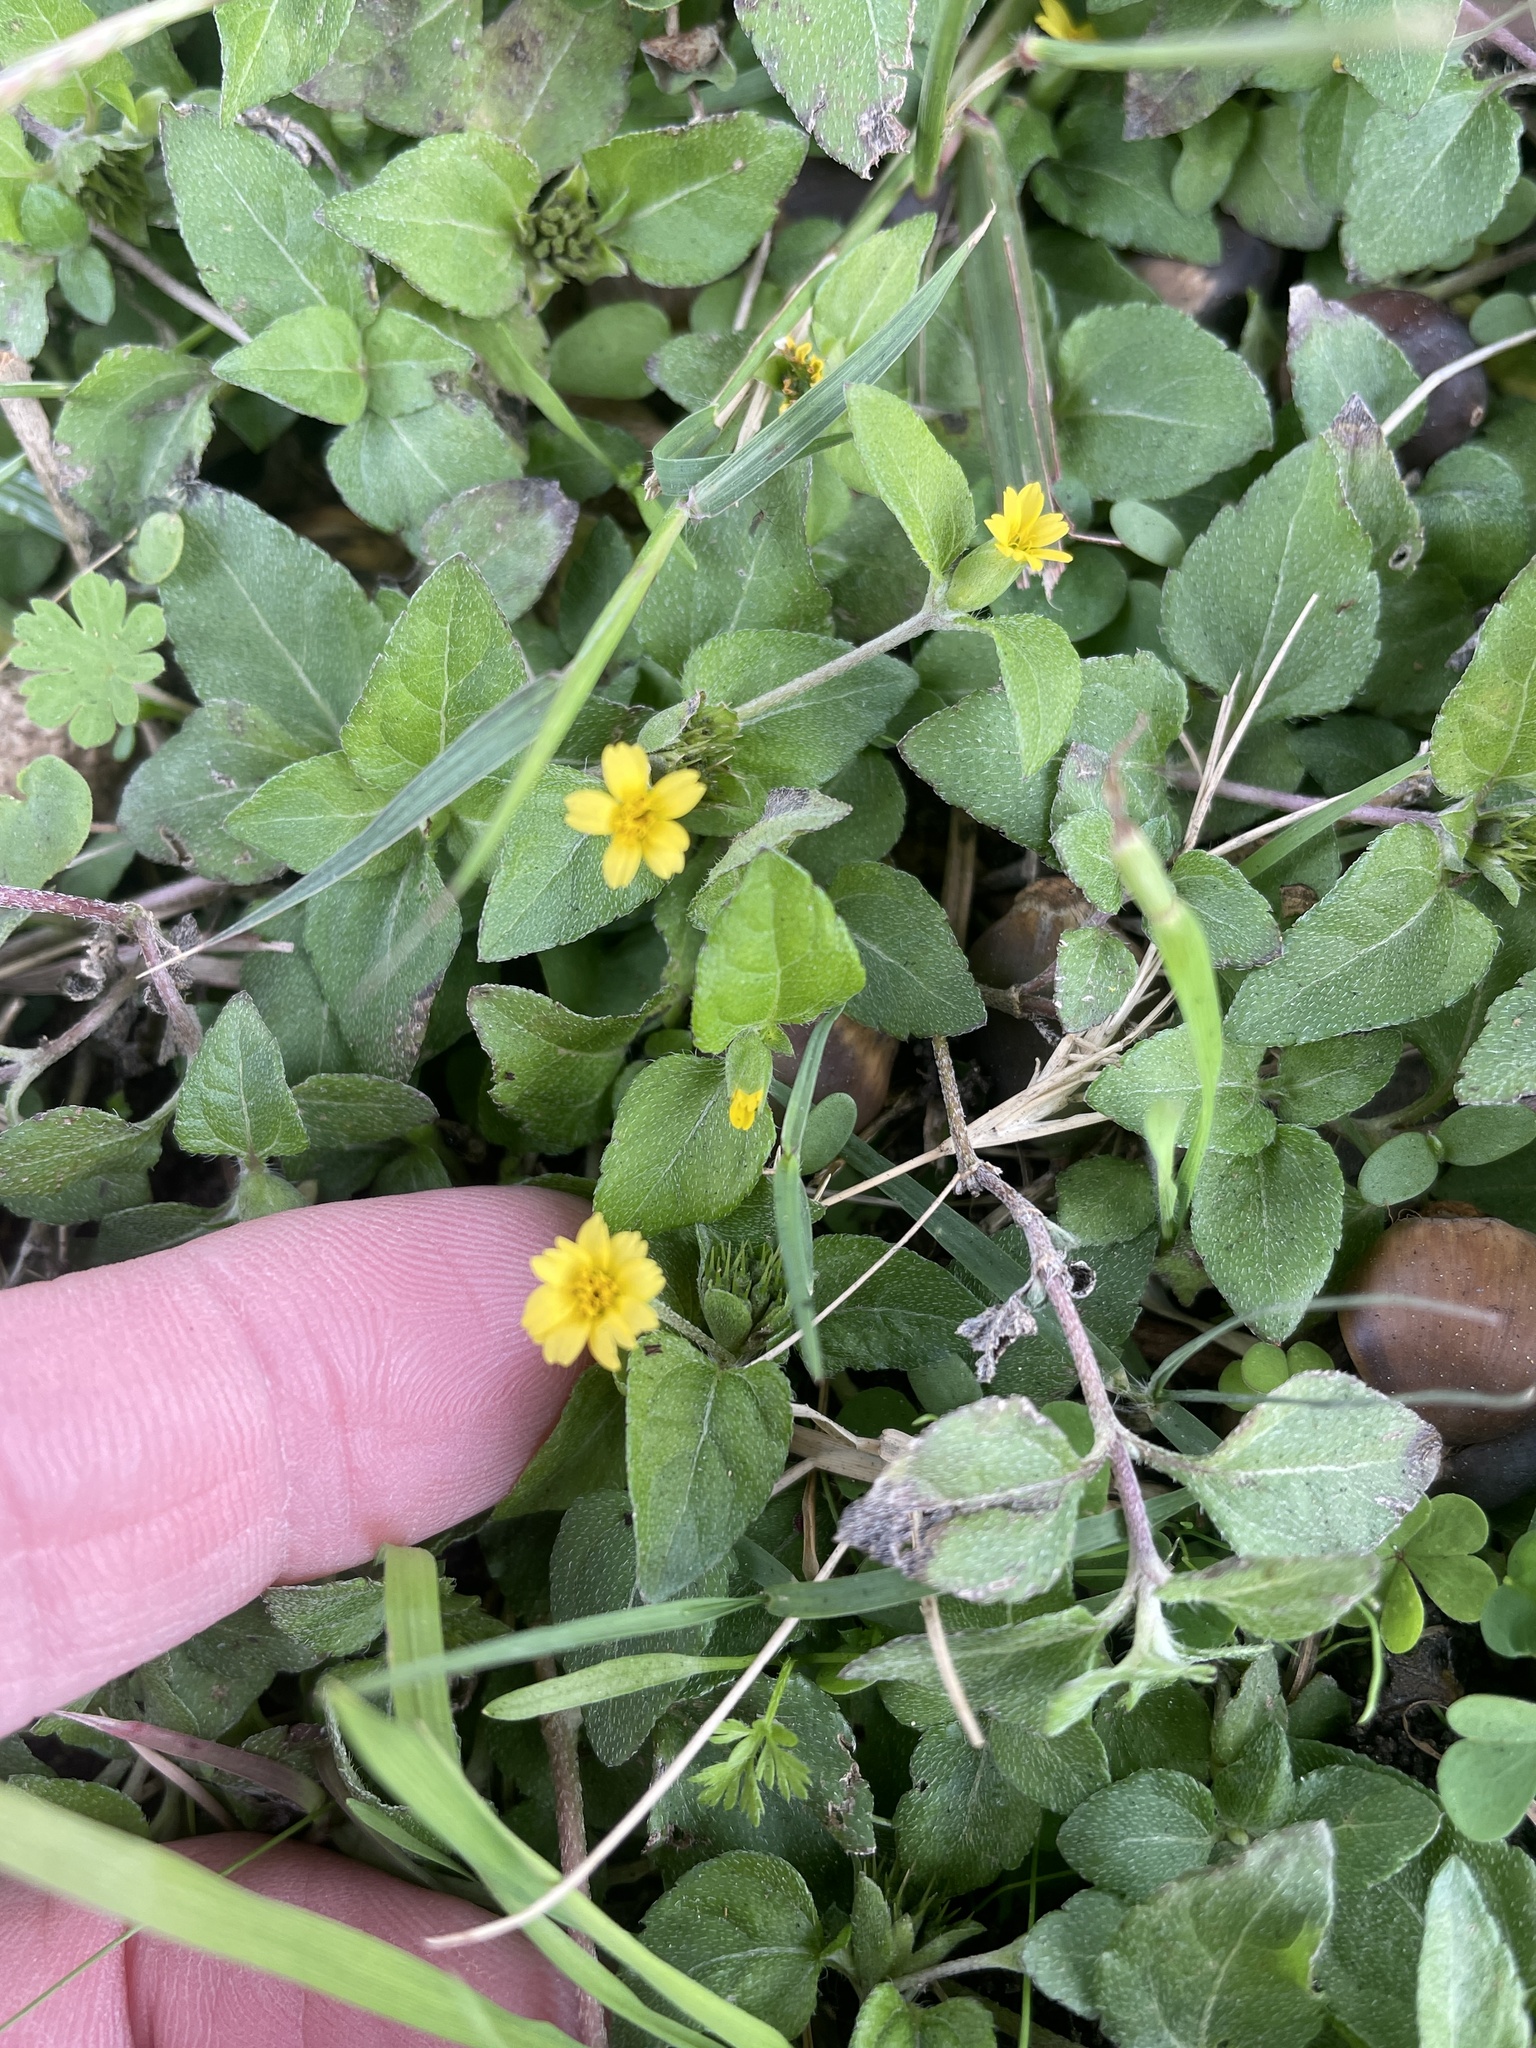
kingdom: Plantae
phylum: Tracheophyta
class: Magnoliopsida
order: Asterales
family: Asteraceae
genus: Calyptocarpus
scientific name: Calyptocarpus vialis
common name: Straggler daisy
